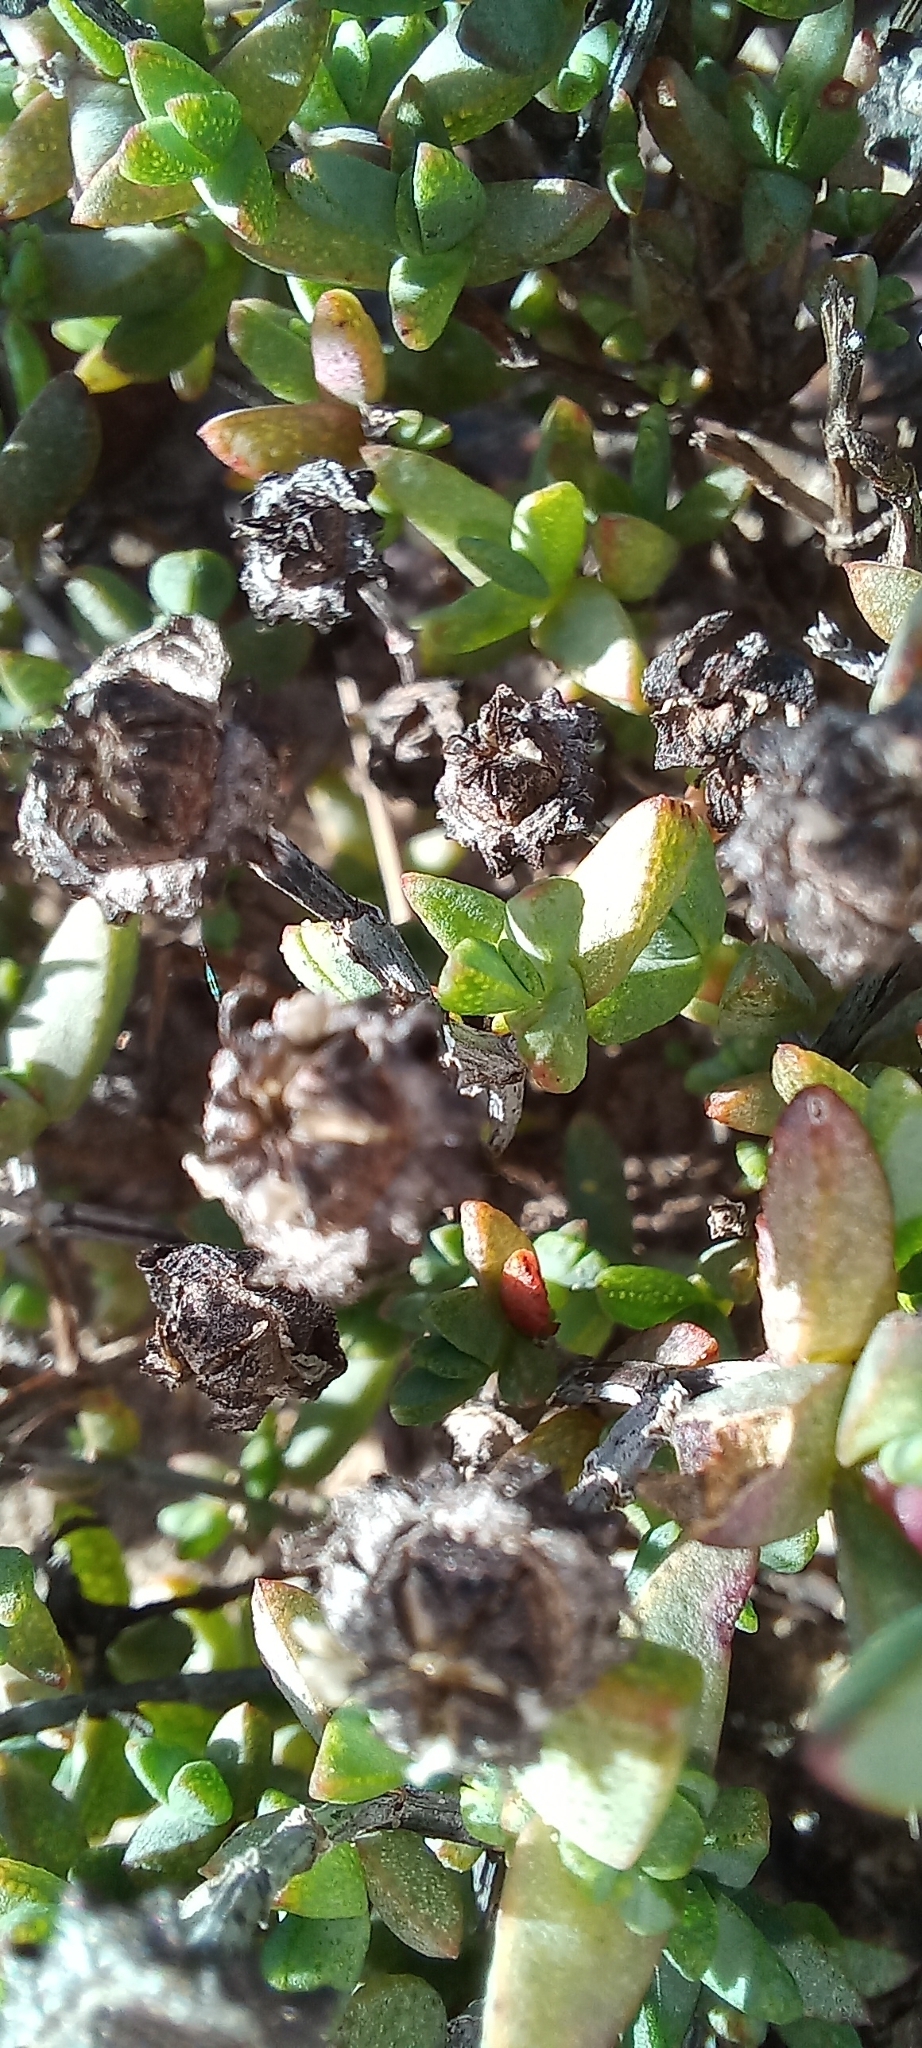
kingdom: Plantae
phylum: Tracheophyta
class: Magnoliopsida
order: Caryophyllales
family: Aizoaceae
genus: Lampranthus
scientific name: Lampranthus calcaratus
